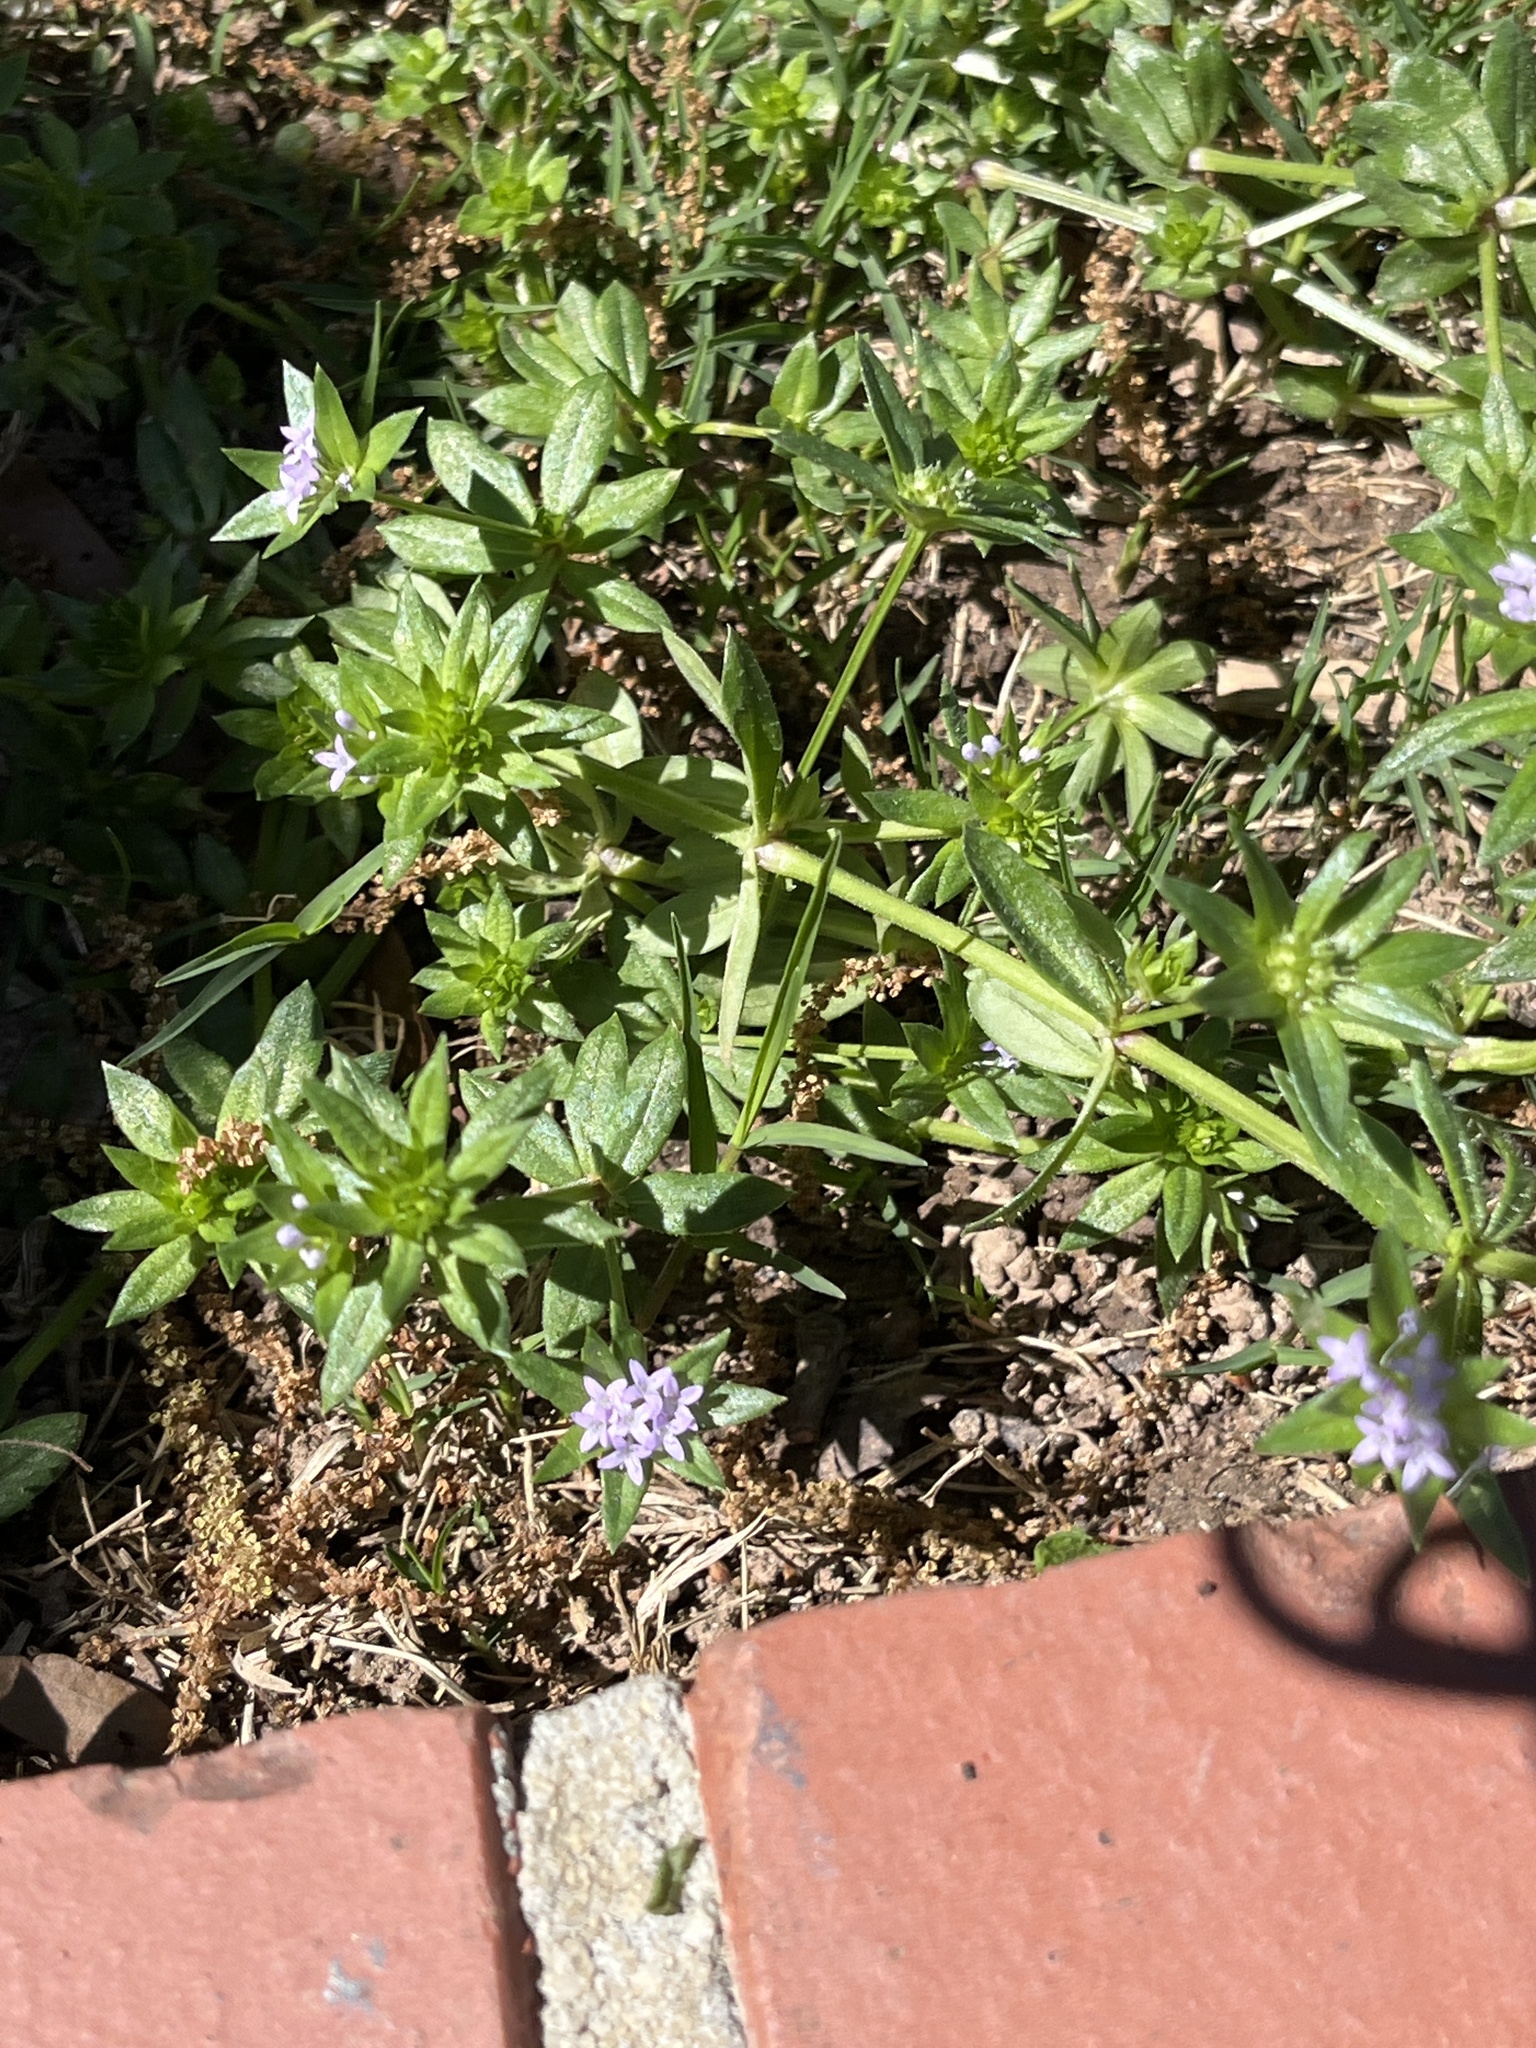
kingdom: Plantae
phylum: Tracheophyta
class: Magnoliopsida
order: Gentianales
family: Rubiaceae
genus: Sherardia
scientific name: Sherardia arvensis
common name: Field madder
